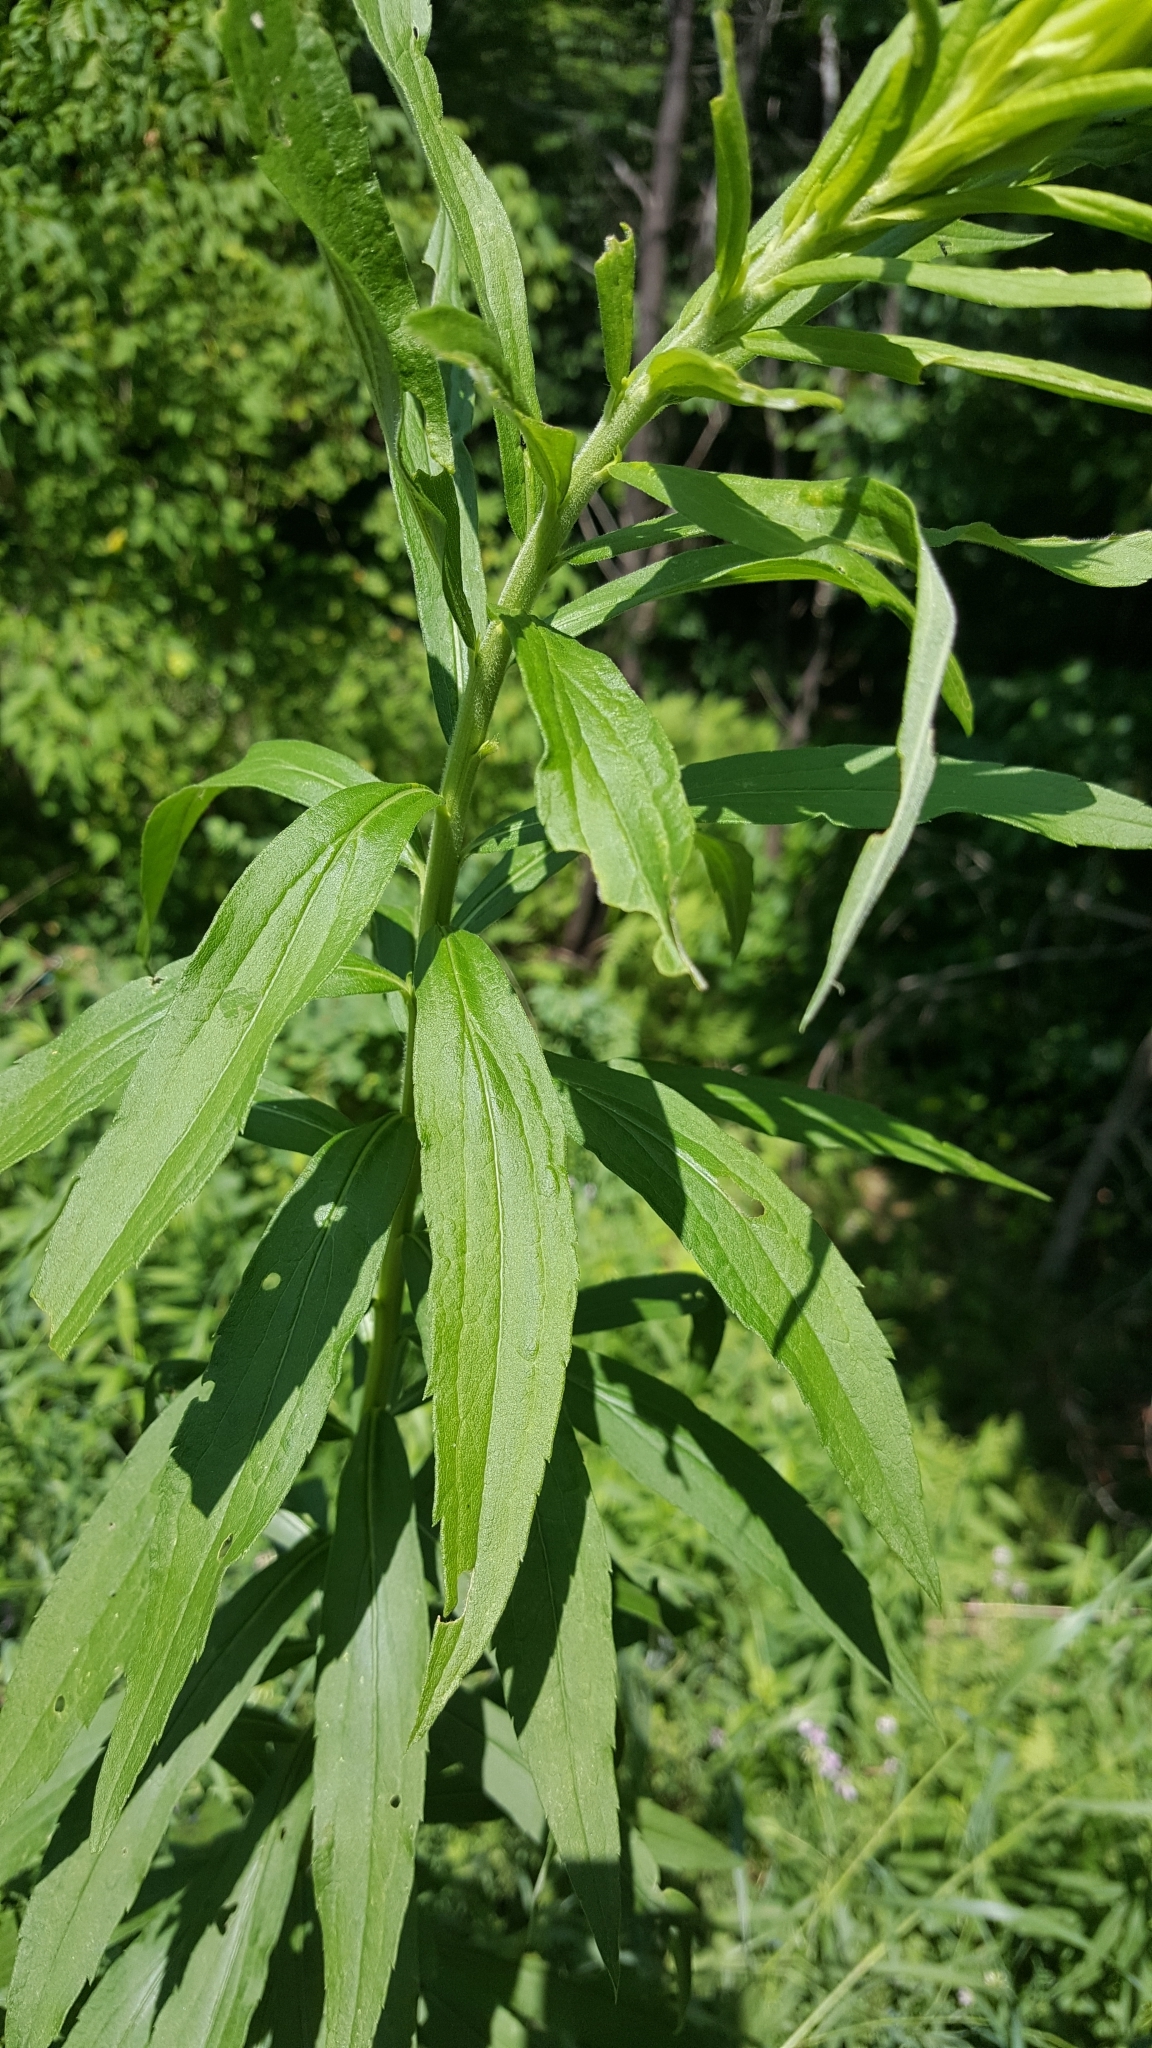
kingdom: Plantae
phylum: Tracheophyta
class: Magnoliopsida
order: Asterales
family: Asteraceae
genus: Solidago
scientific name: Solidago altissima
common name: Late goldenrod
